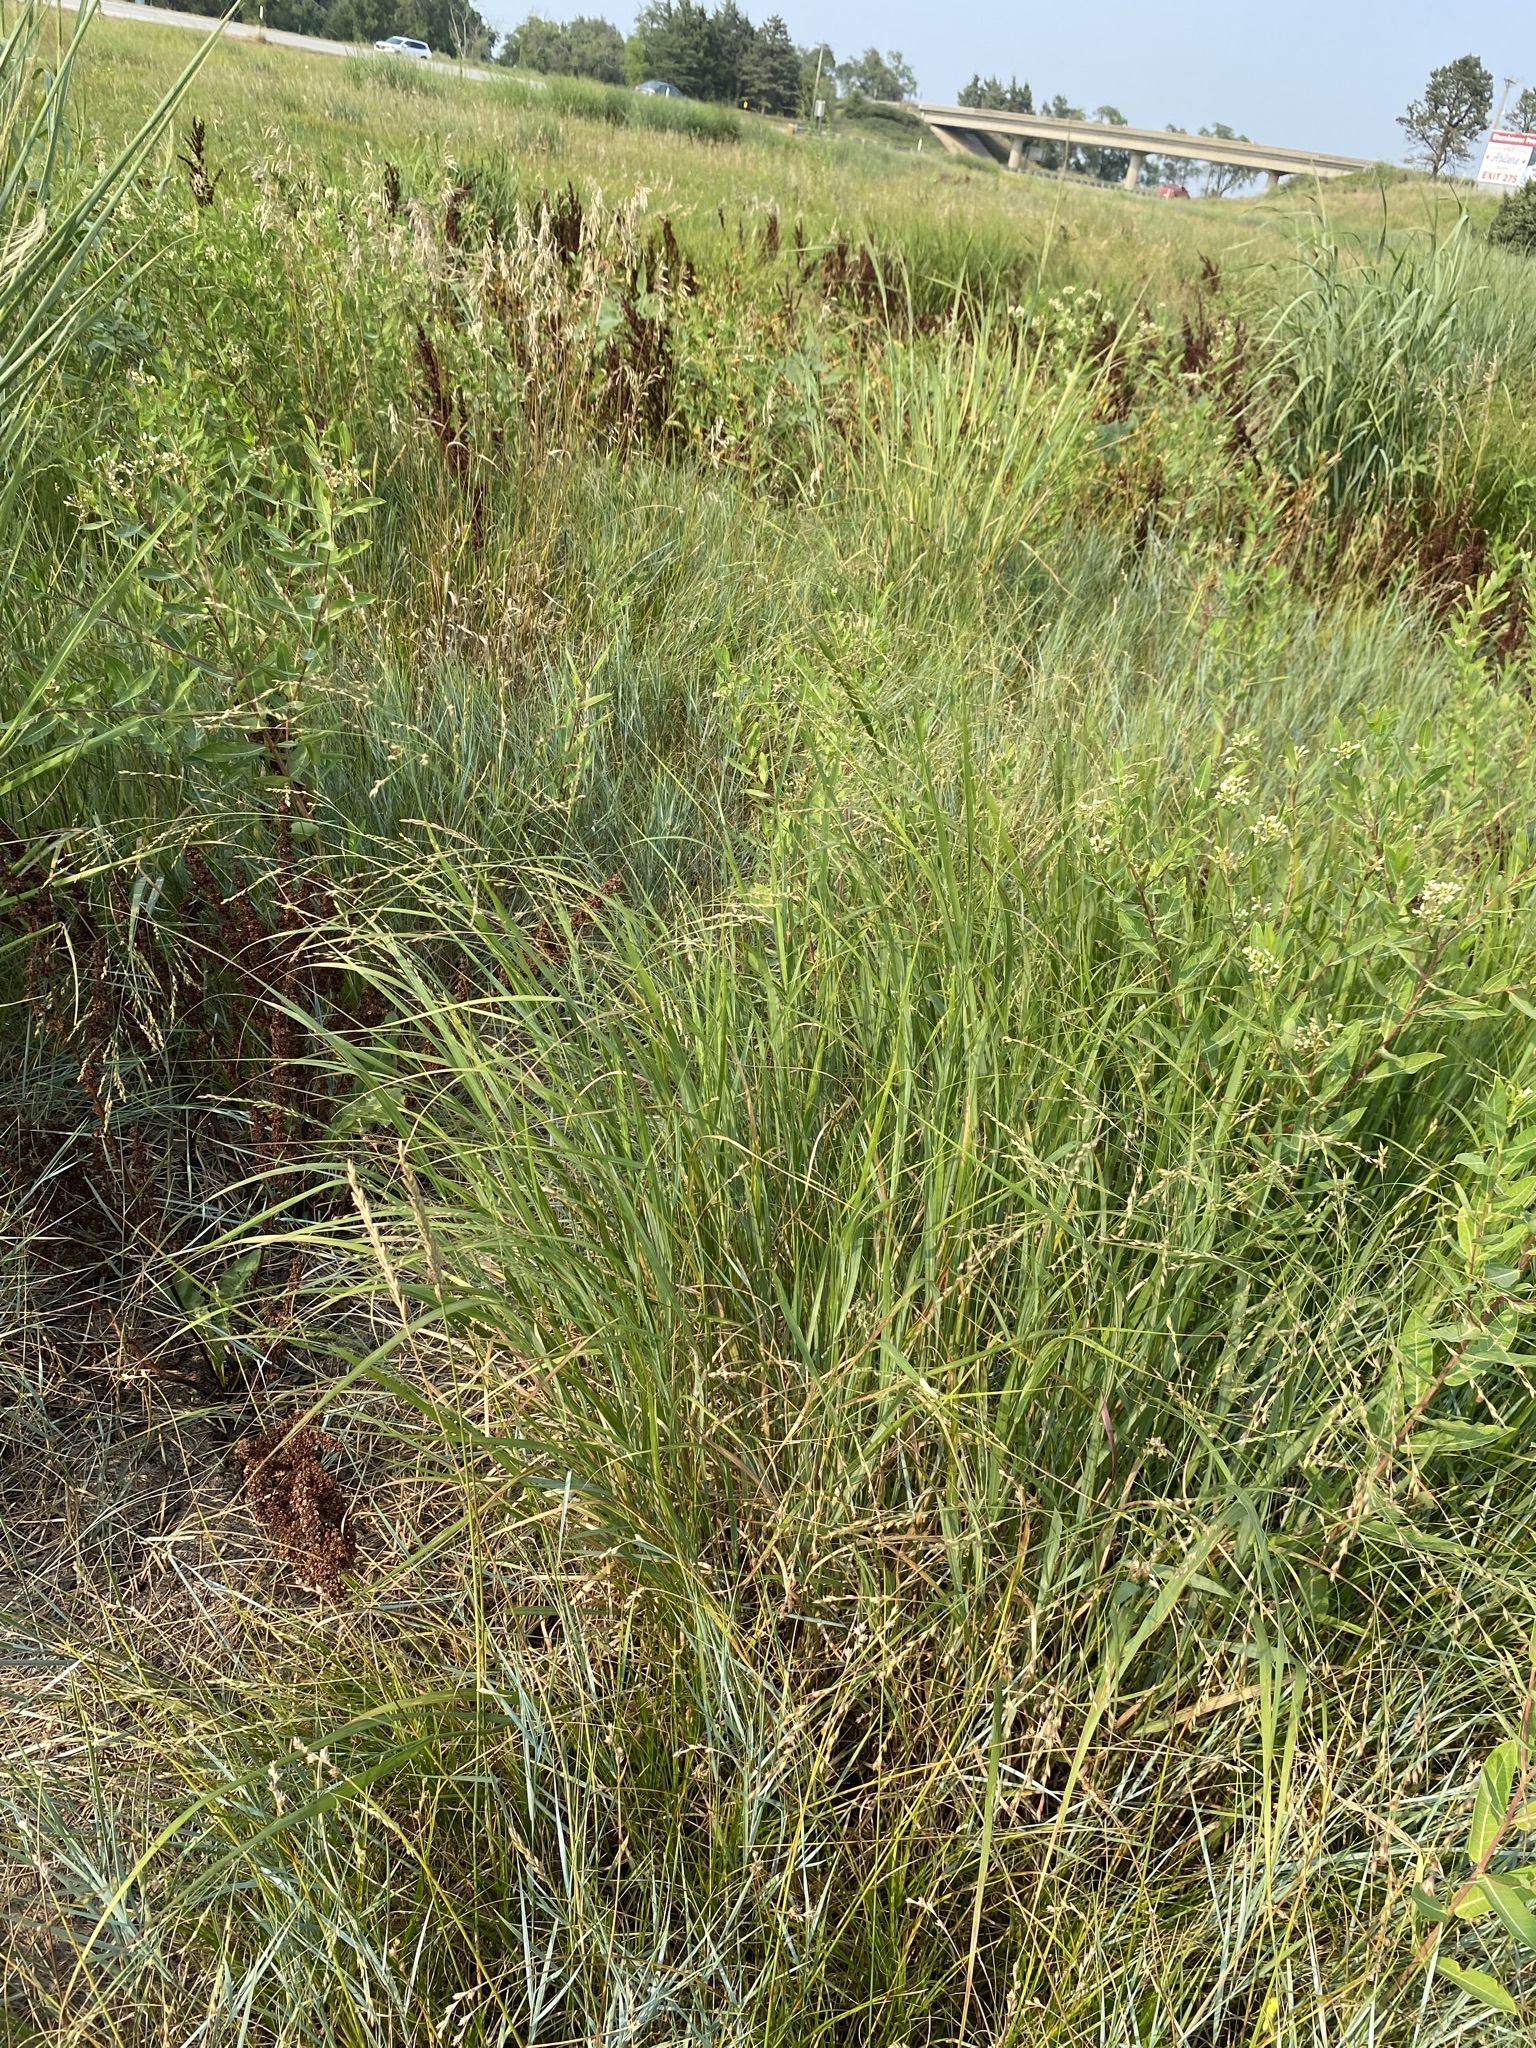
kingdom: Plantae
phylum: Tracheophyta
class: Liliopsida
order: Poales
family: Poaceae
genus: Panicum
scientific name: Panicum virgatum
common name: Switchgrass
